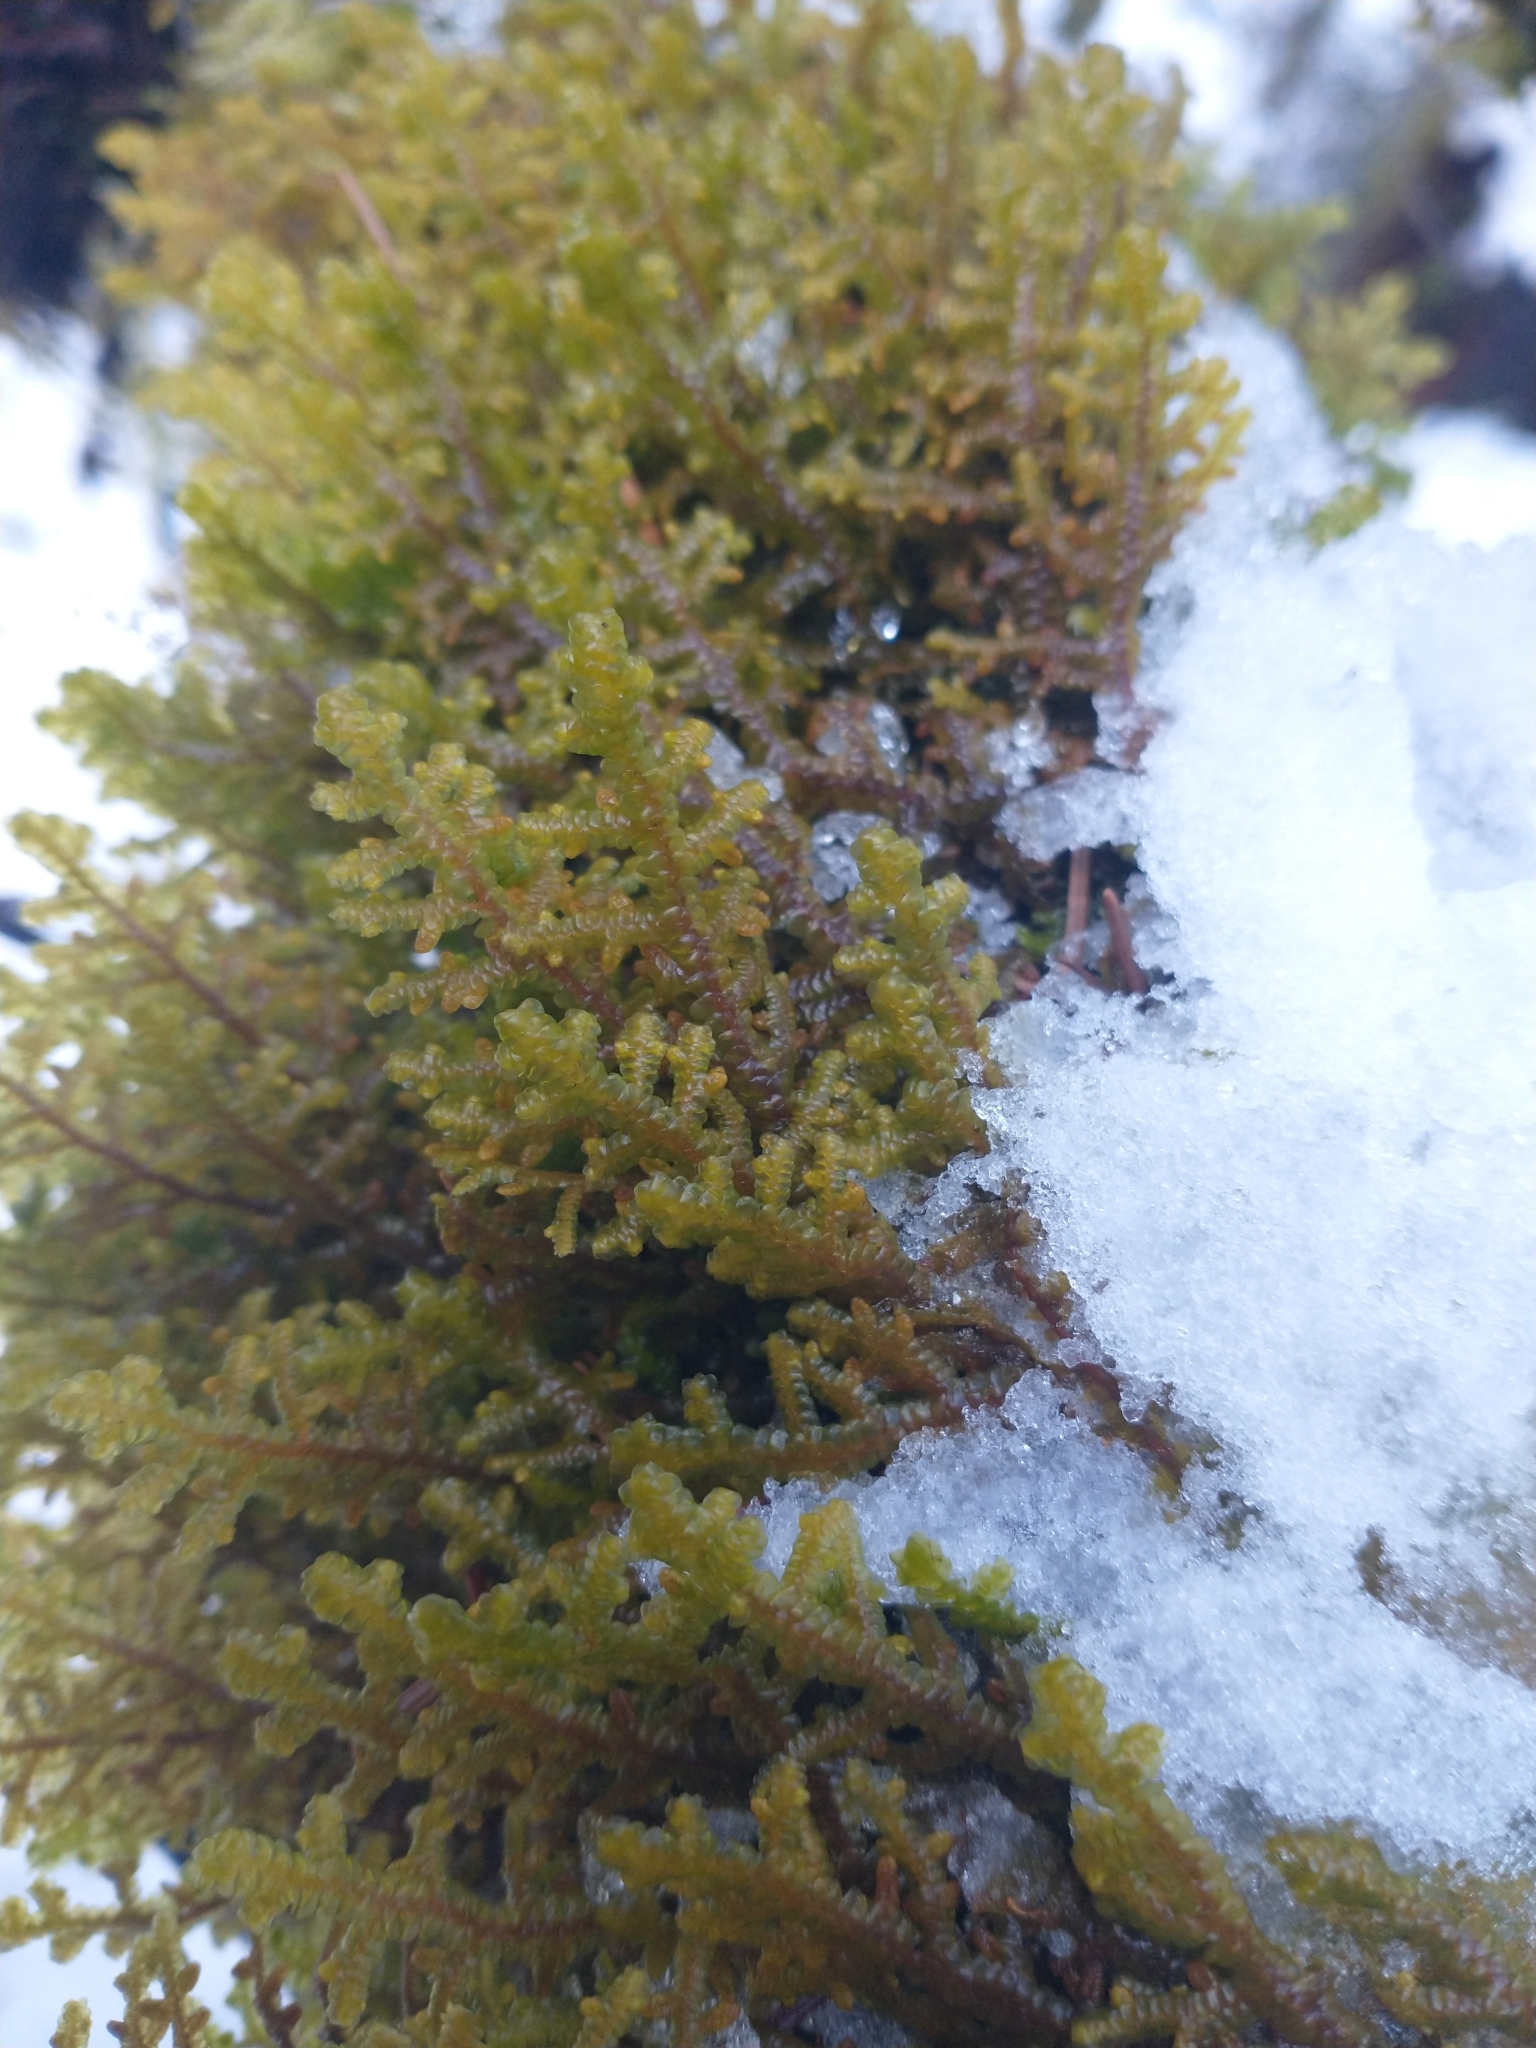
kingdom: Plantae
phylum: Marchantiophyta
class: Jungermanniopsida
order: Porellales
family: Porellaceae
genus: Porella
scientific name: Porella navicularis
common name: Tree ruffle liverwort
